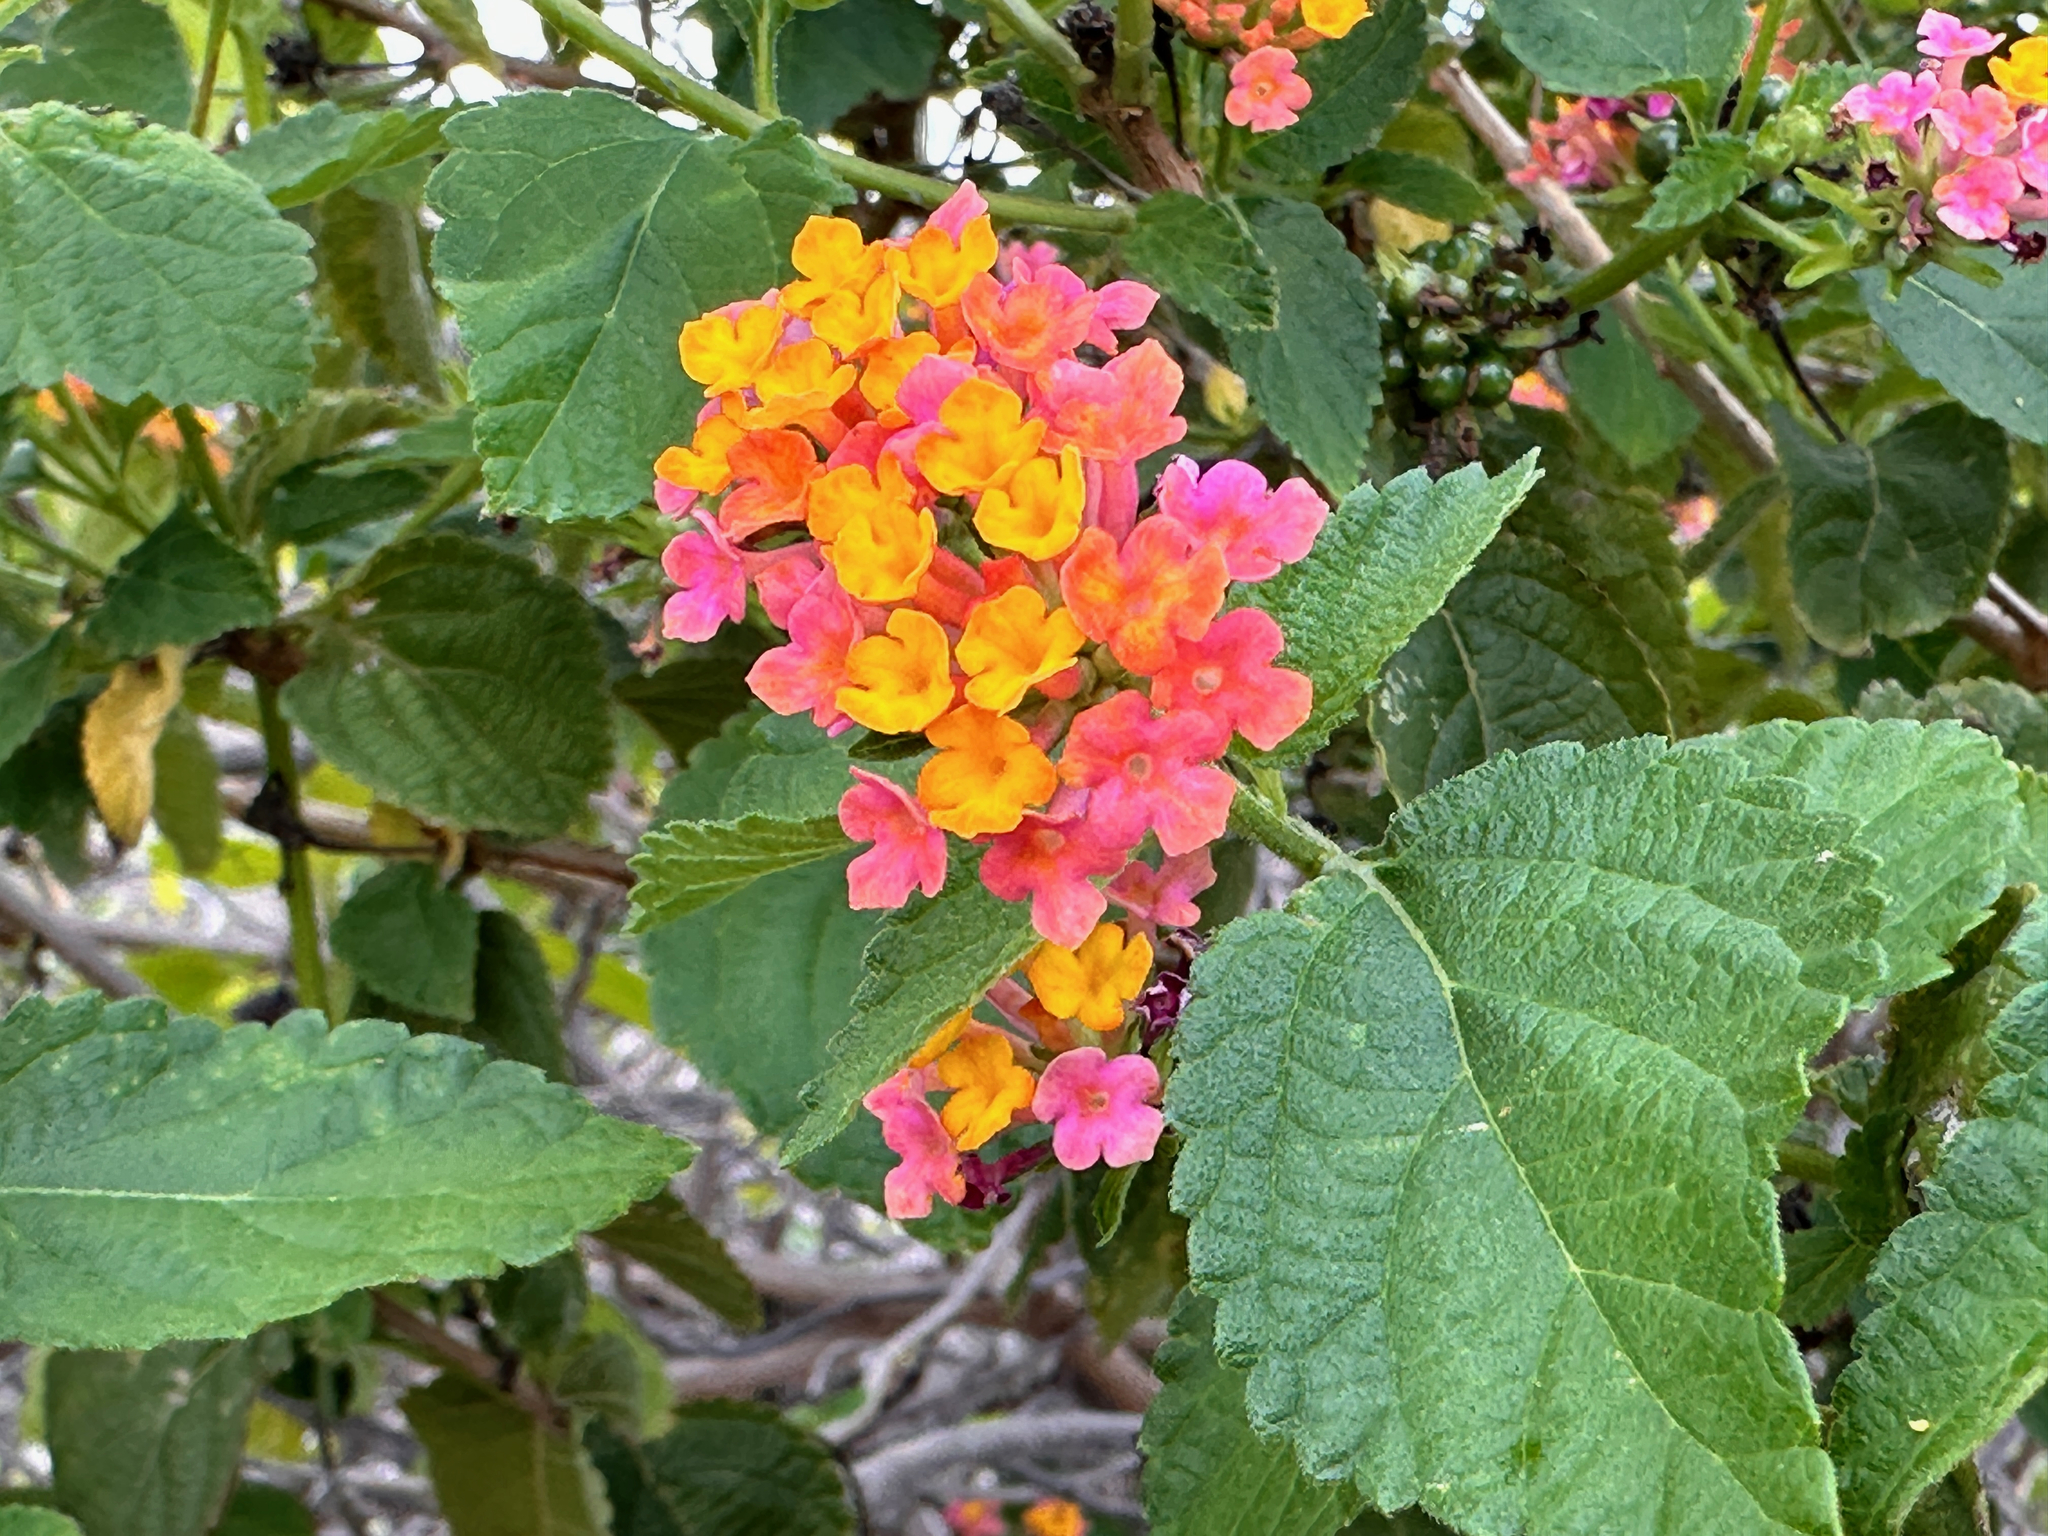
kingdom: Plantae
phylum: Tracheophyta
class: Magnoliopsida
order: Lamiales
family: Verbenaceae
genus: Lantana
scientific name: Lantana camara
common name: Lantana
